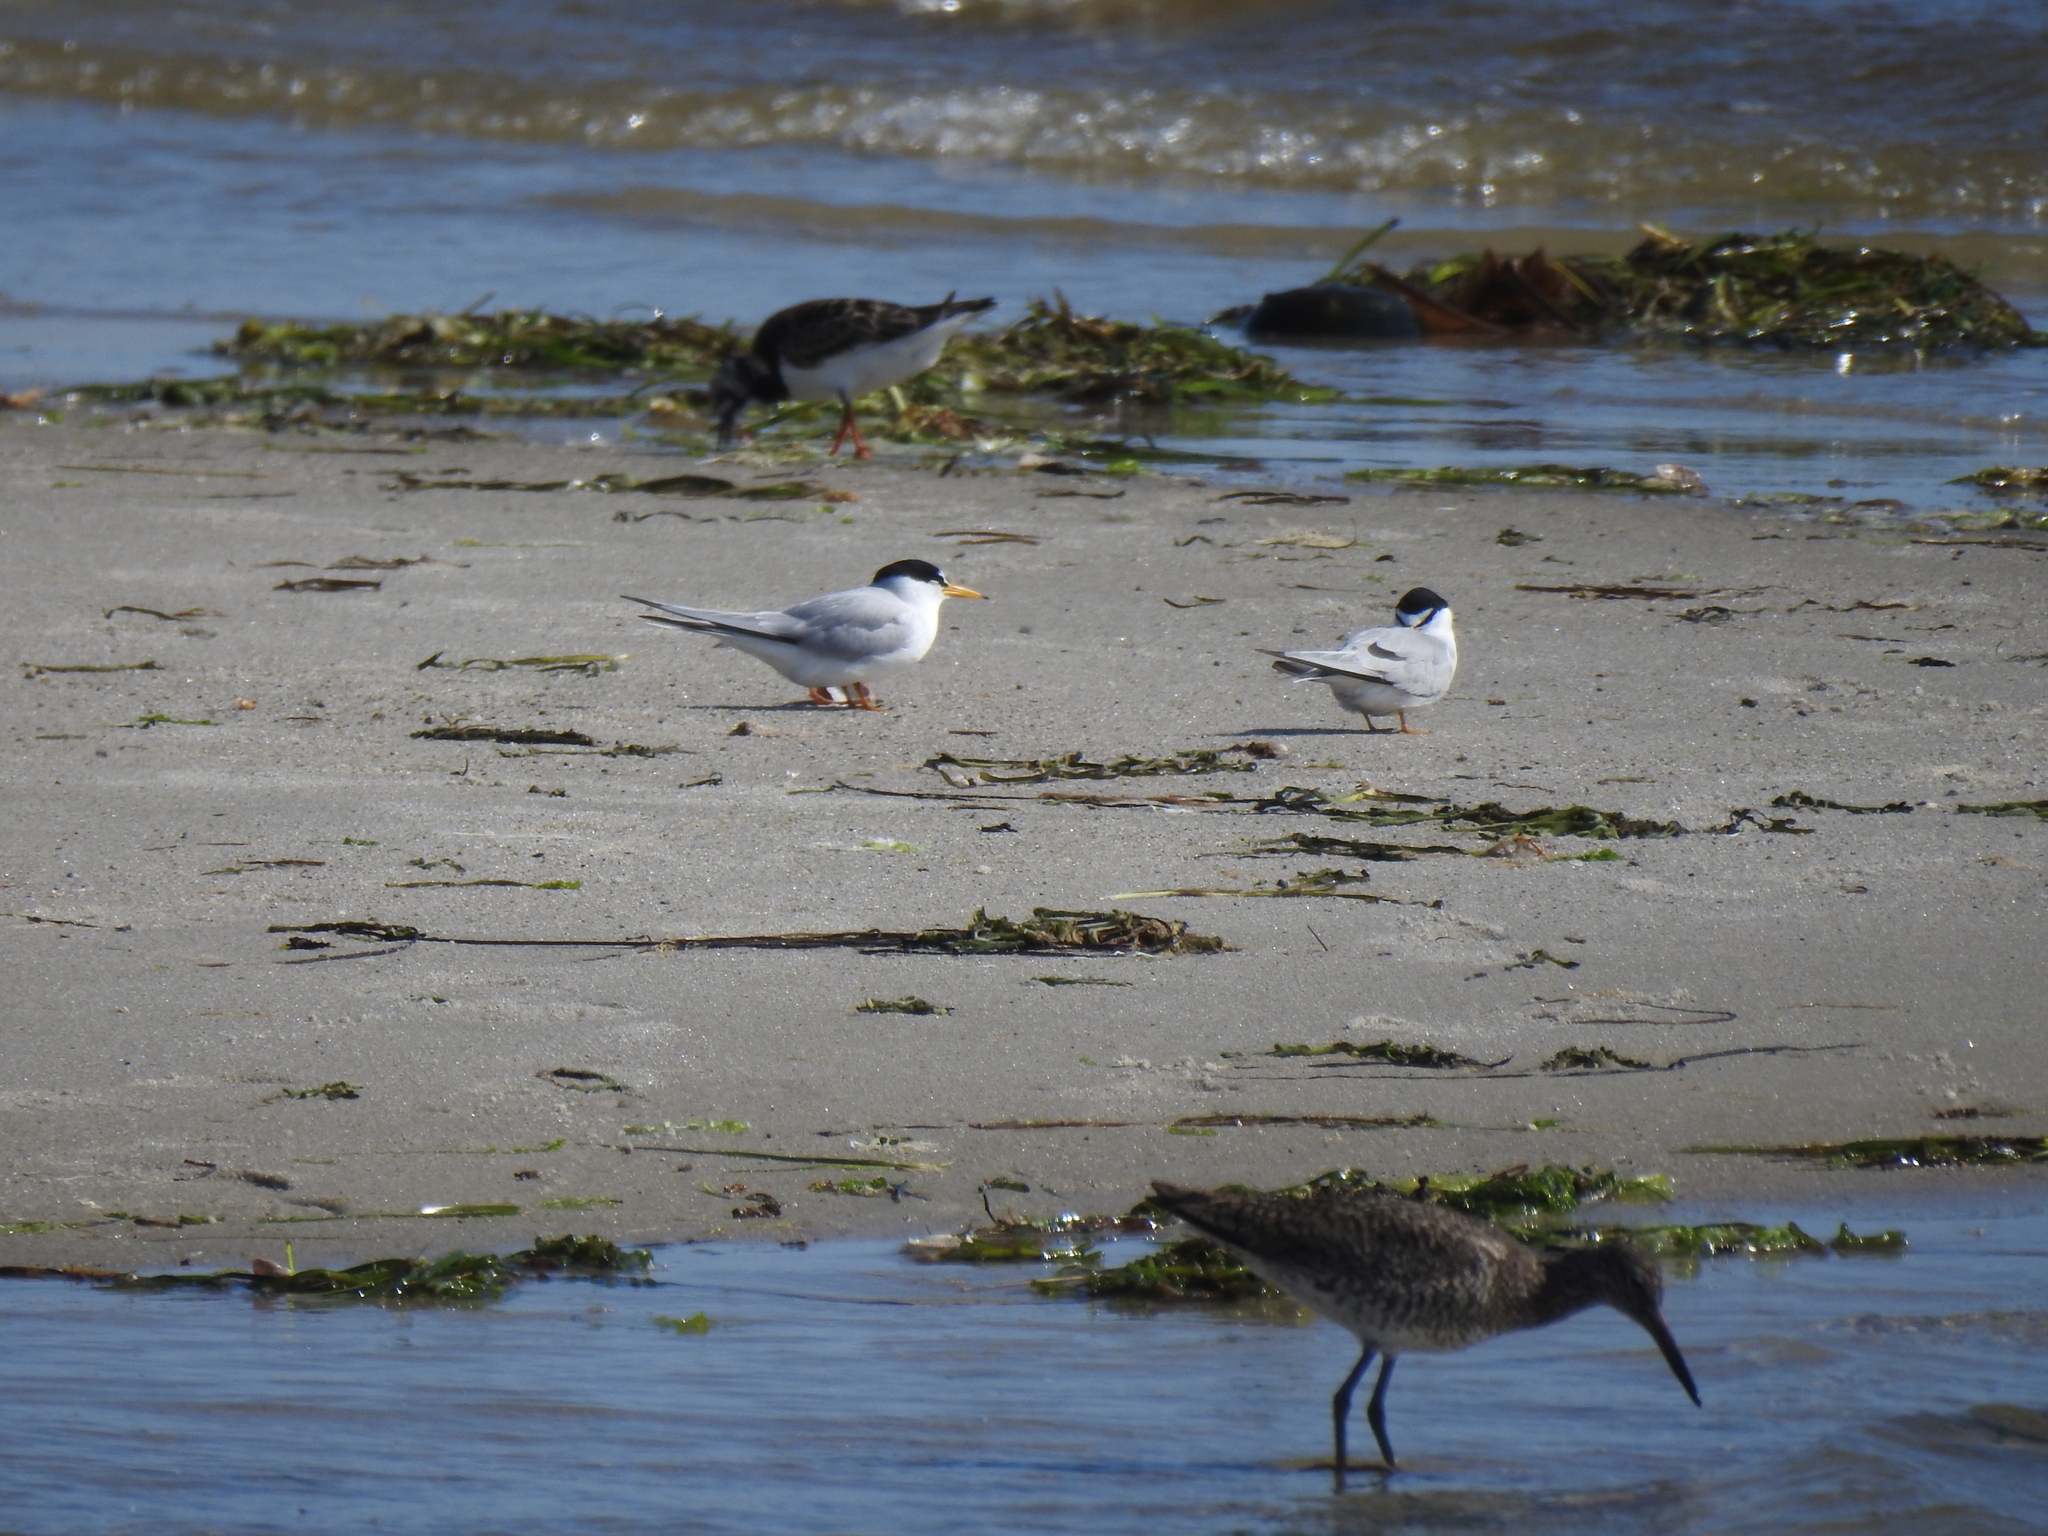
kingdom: Animalia
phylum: Chordata
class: Aves
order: Charadriiformes
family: Laridae
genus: Sternula
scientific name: Sternula antillarum
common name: Least tern
